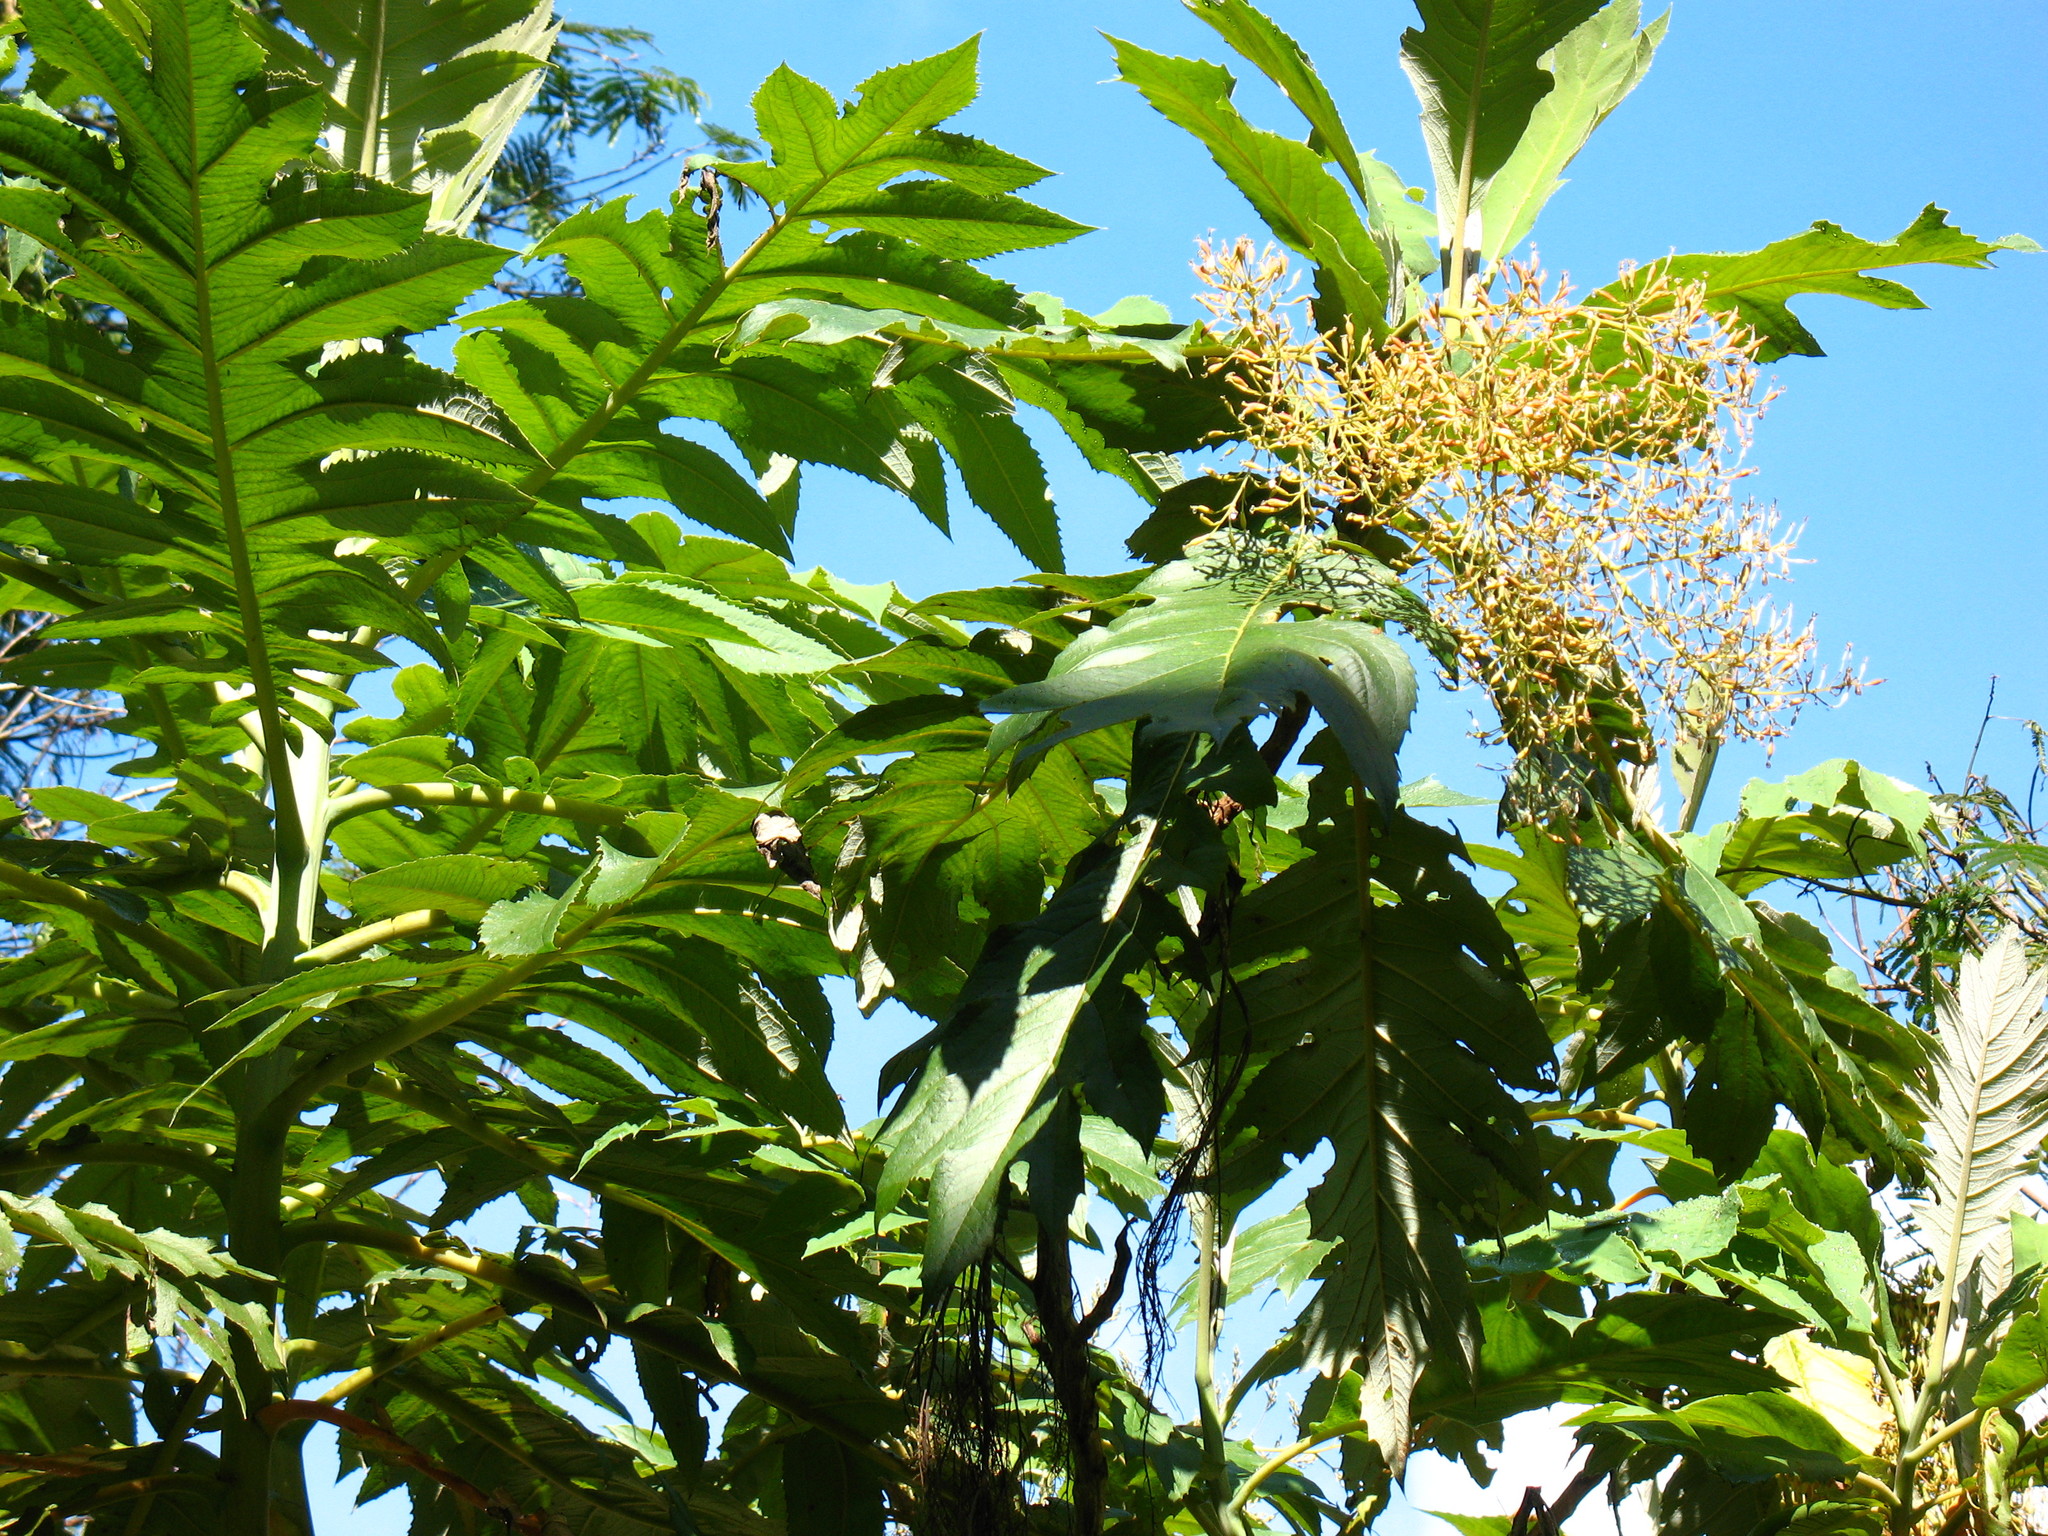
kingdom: Plantae
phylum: Tracheophyta
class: Magnoliopsida
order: Ranunculales
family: Papaveraceae
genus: Bocconia
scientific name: Bocconia frutescens
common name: Tree poppy
